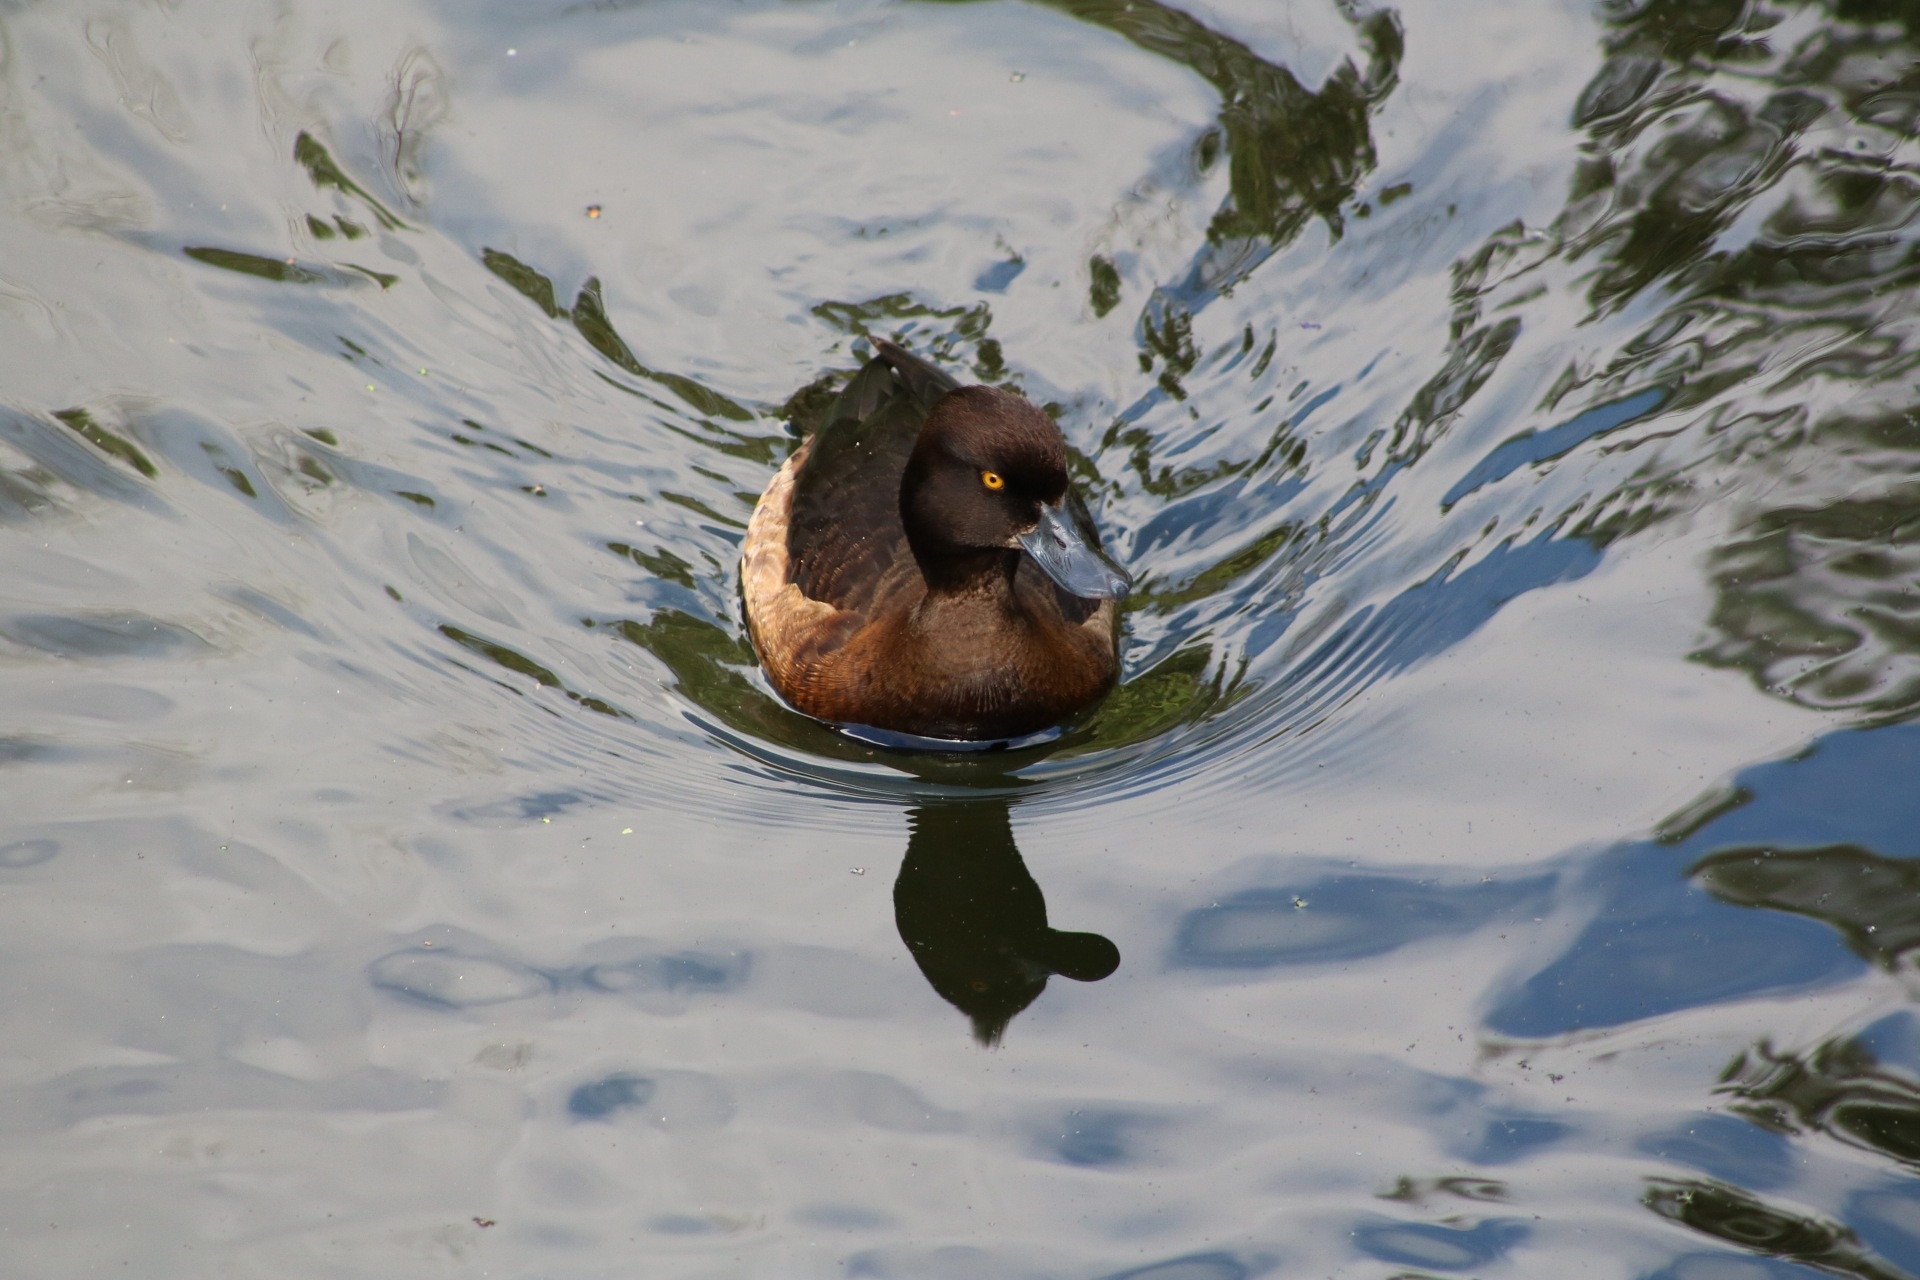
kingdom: Animalia
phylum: Chordata
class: Aves
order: Anseriformes
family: Anatidae
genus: Aythya
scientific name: Aythya fuligula
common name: Tufted duck
